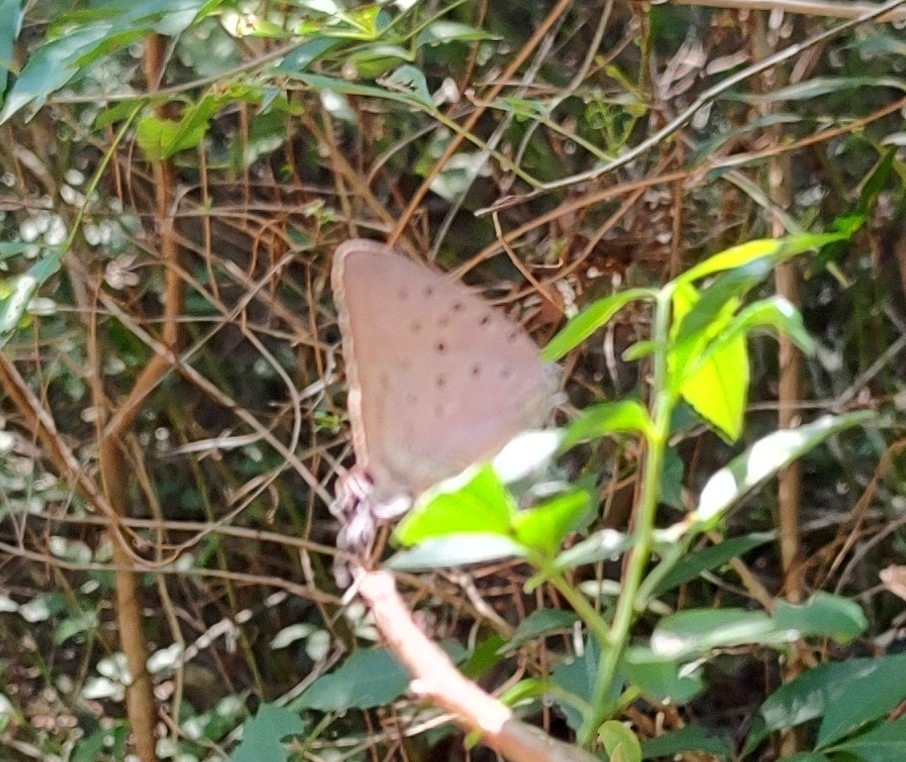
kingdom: Animalia
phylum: Arthropoda
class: Insecta
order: Lepidoptera
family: Lycaenidae
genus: Pseudolycaena
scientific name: Pseudolycaena marsyas
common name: Marsyas hairstreak
